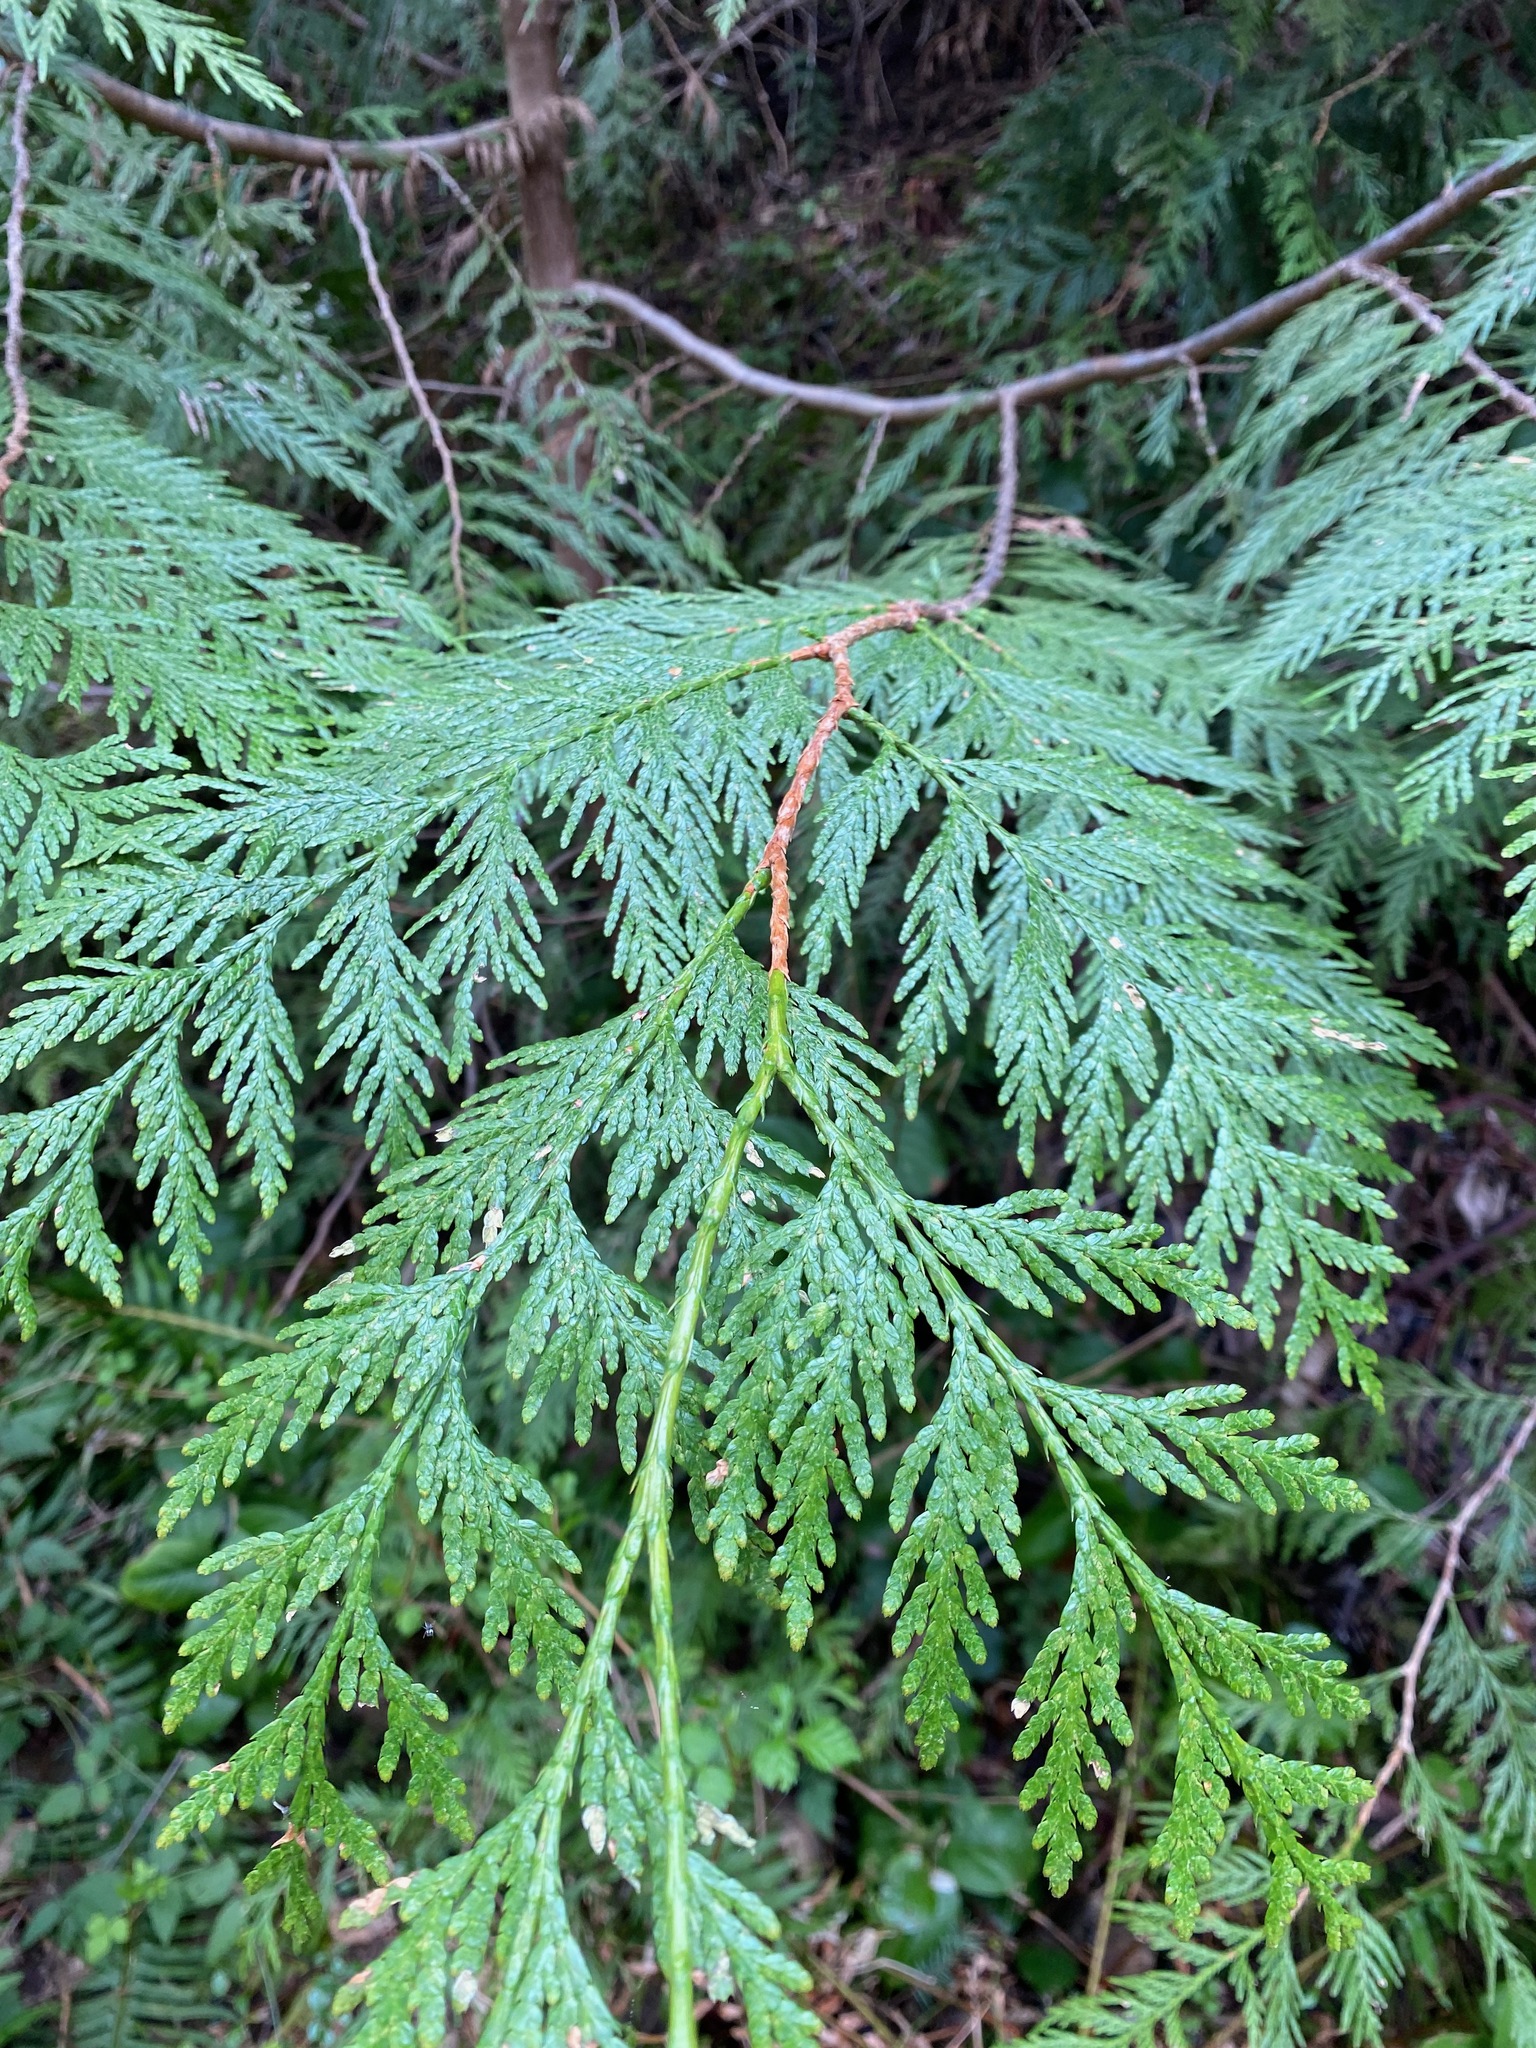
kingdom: Plantae
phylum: Tracheophyta
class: Pinopsida
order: Pinales
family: Cupressaceae
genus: Thuja
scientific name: Thuja plicata
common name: Western red-cedar
